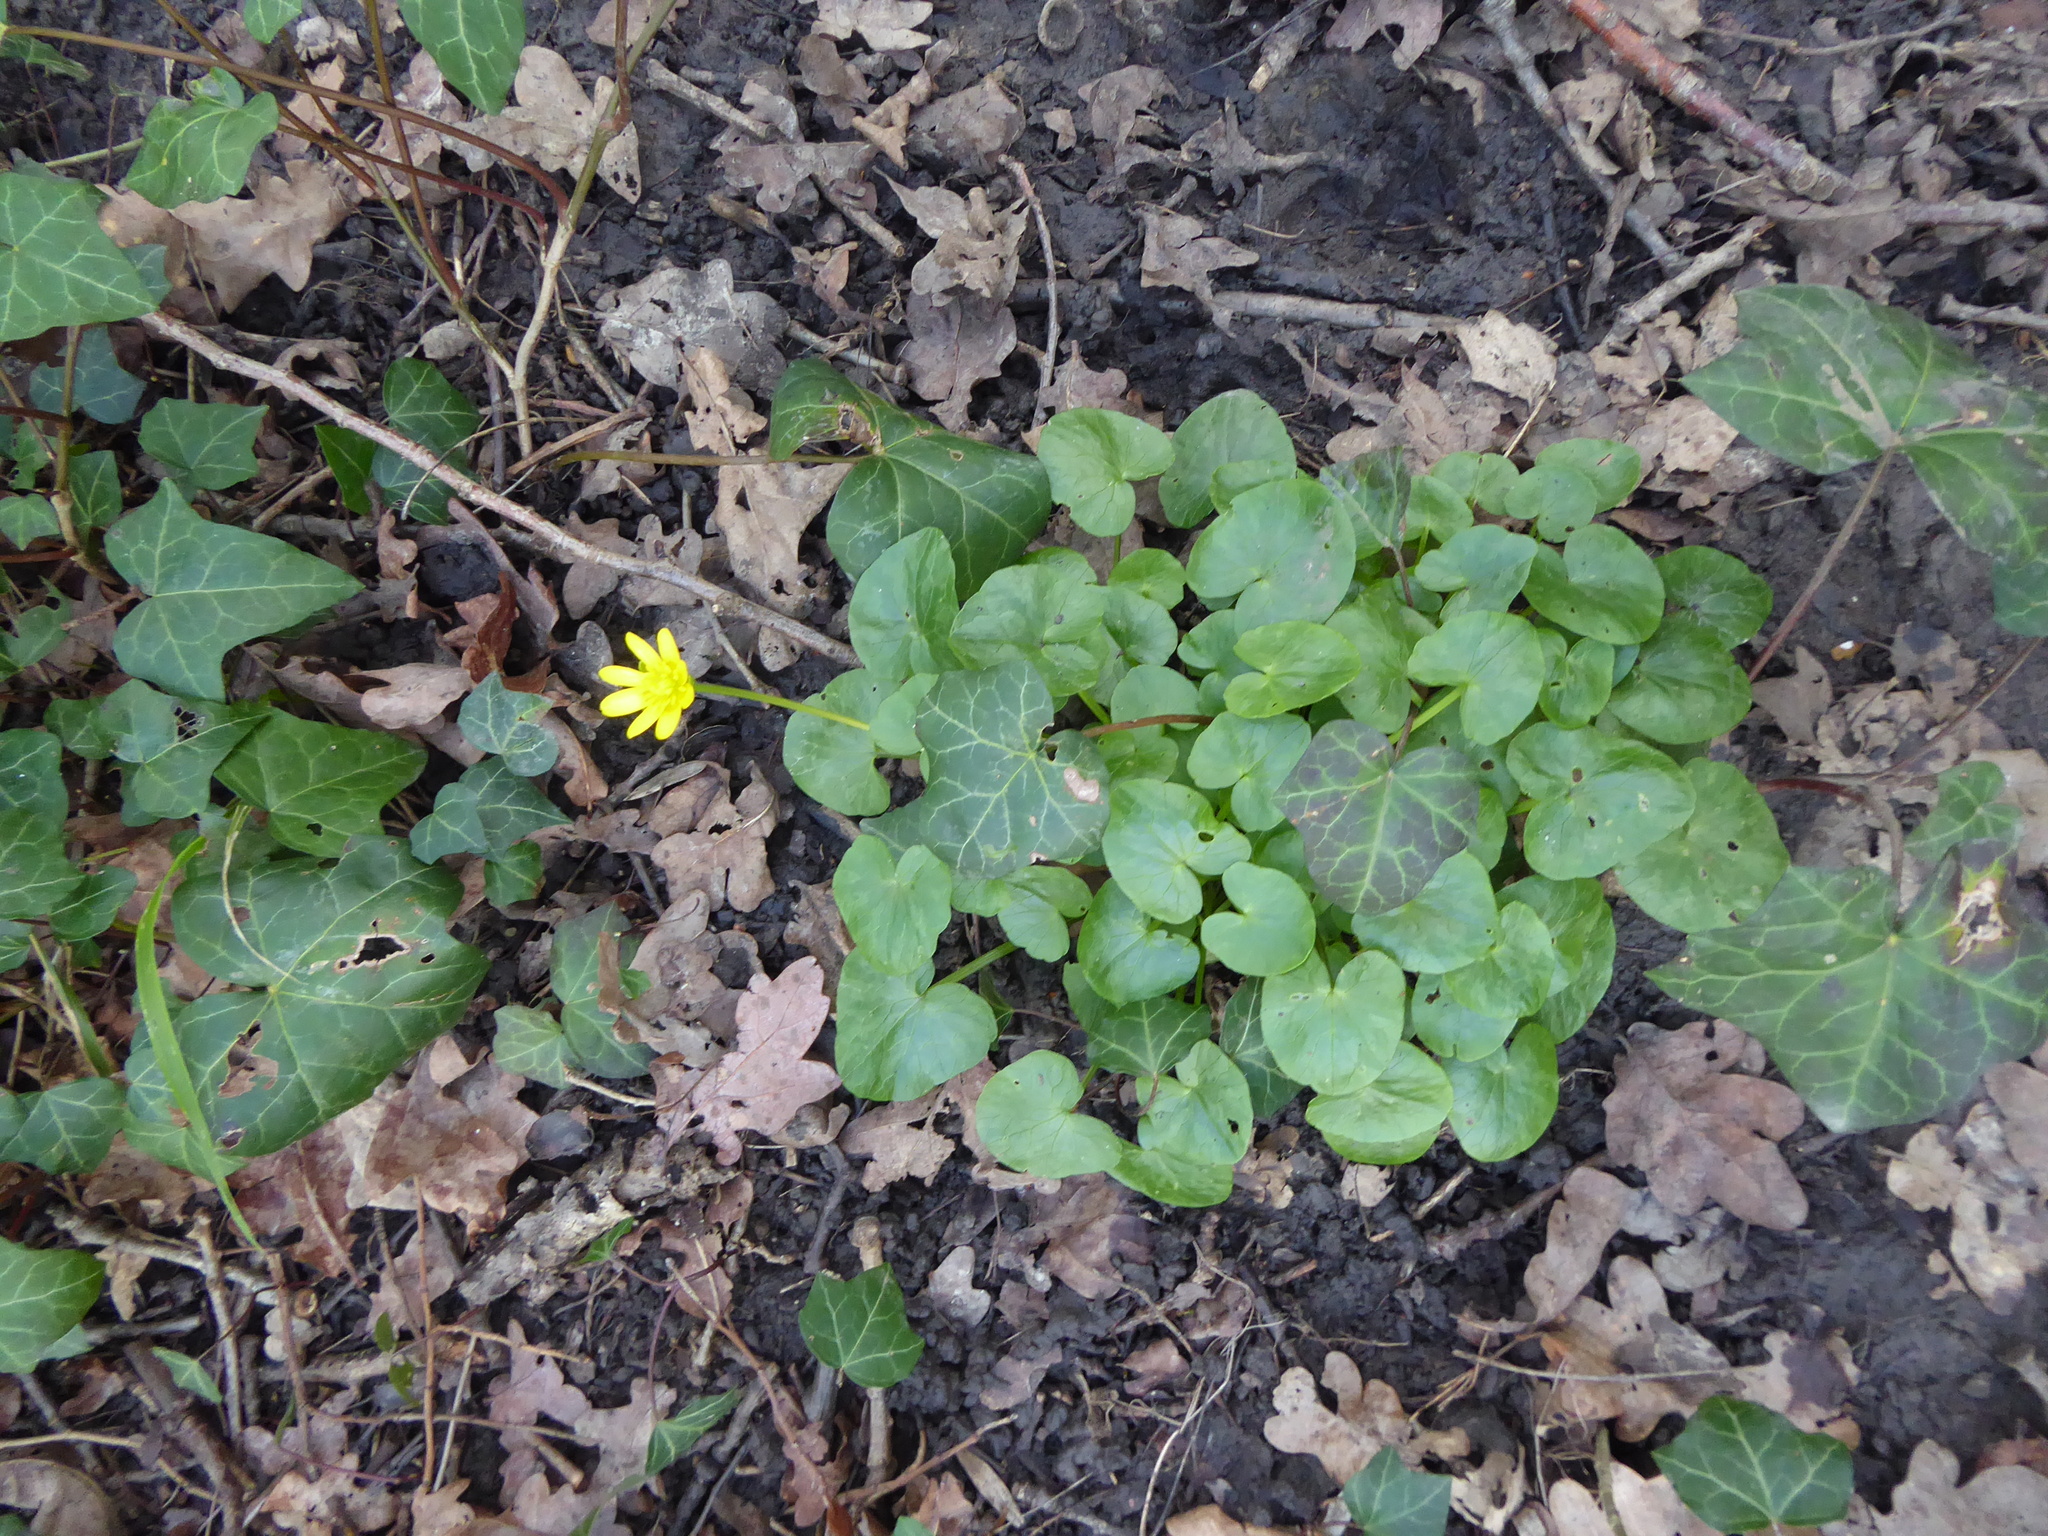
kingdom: Plantae
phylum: Tracheophyta
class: Magnoliopsida
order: Ranunculales
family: Ranunculaceae
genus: Ficaria
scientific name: Ficaria verna
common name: Lesser celandine
